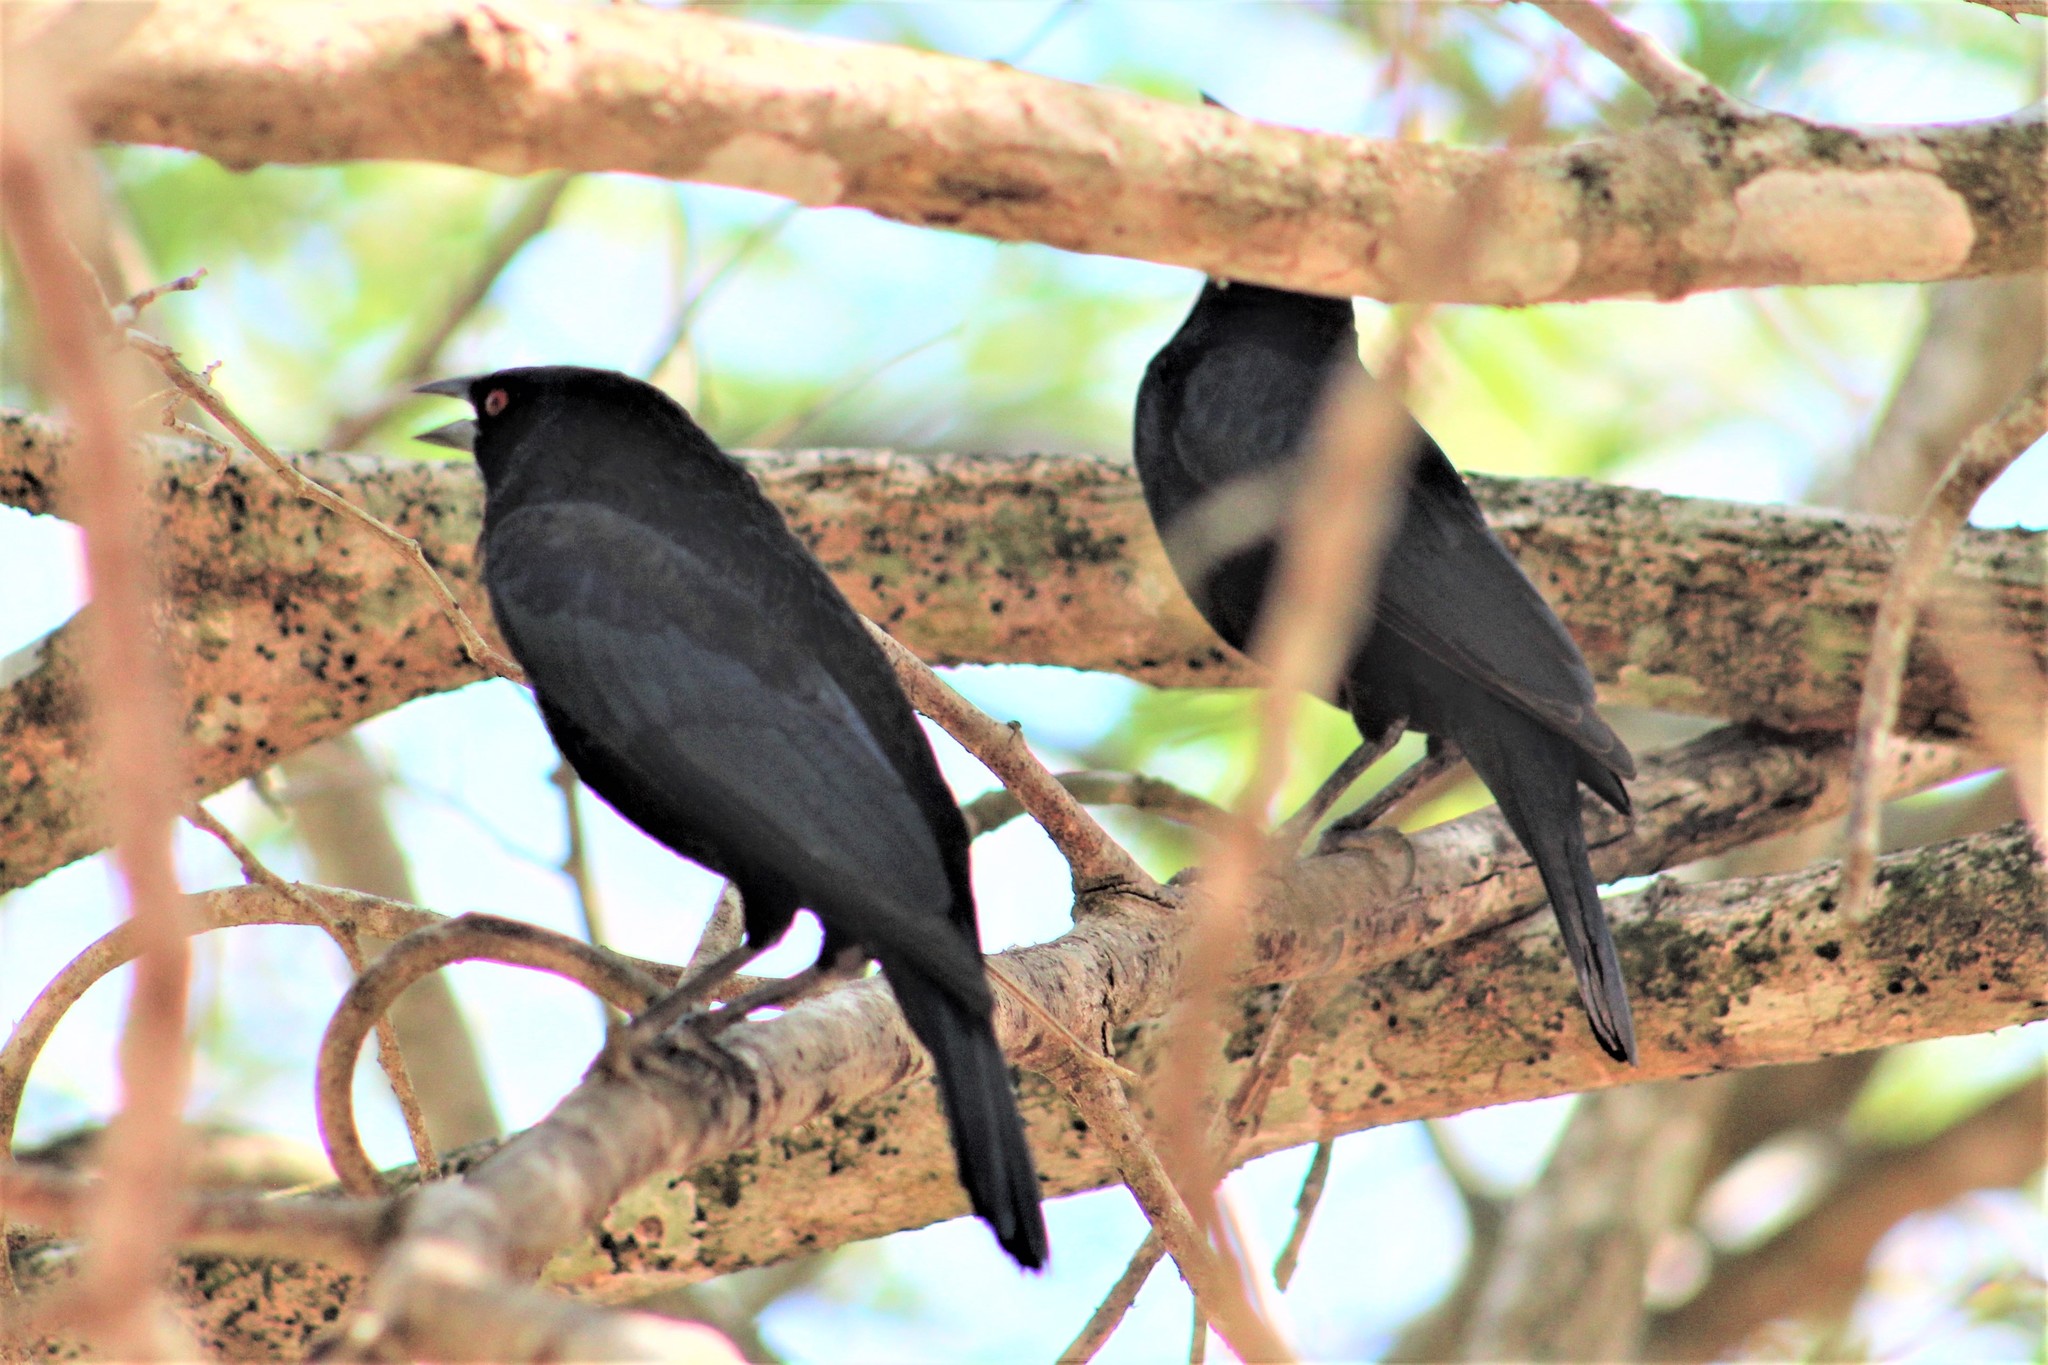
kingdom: Animalia
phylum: Chordata
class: Aves
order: Passeriformes
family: Icteridae
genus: Molothrus
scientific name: Molothrus aeneus
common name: Bronzed cowbird
